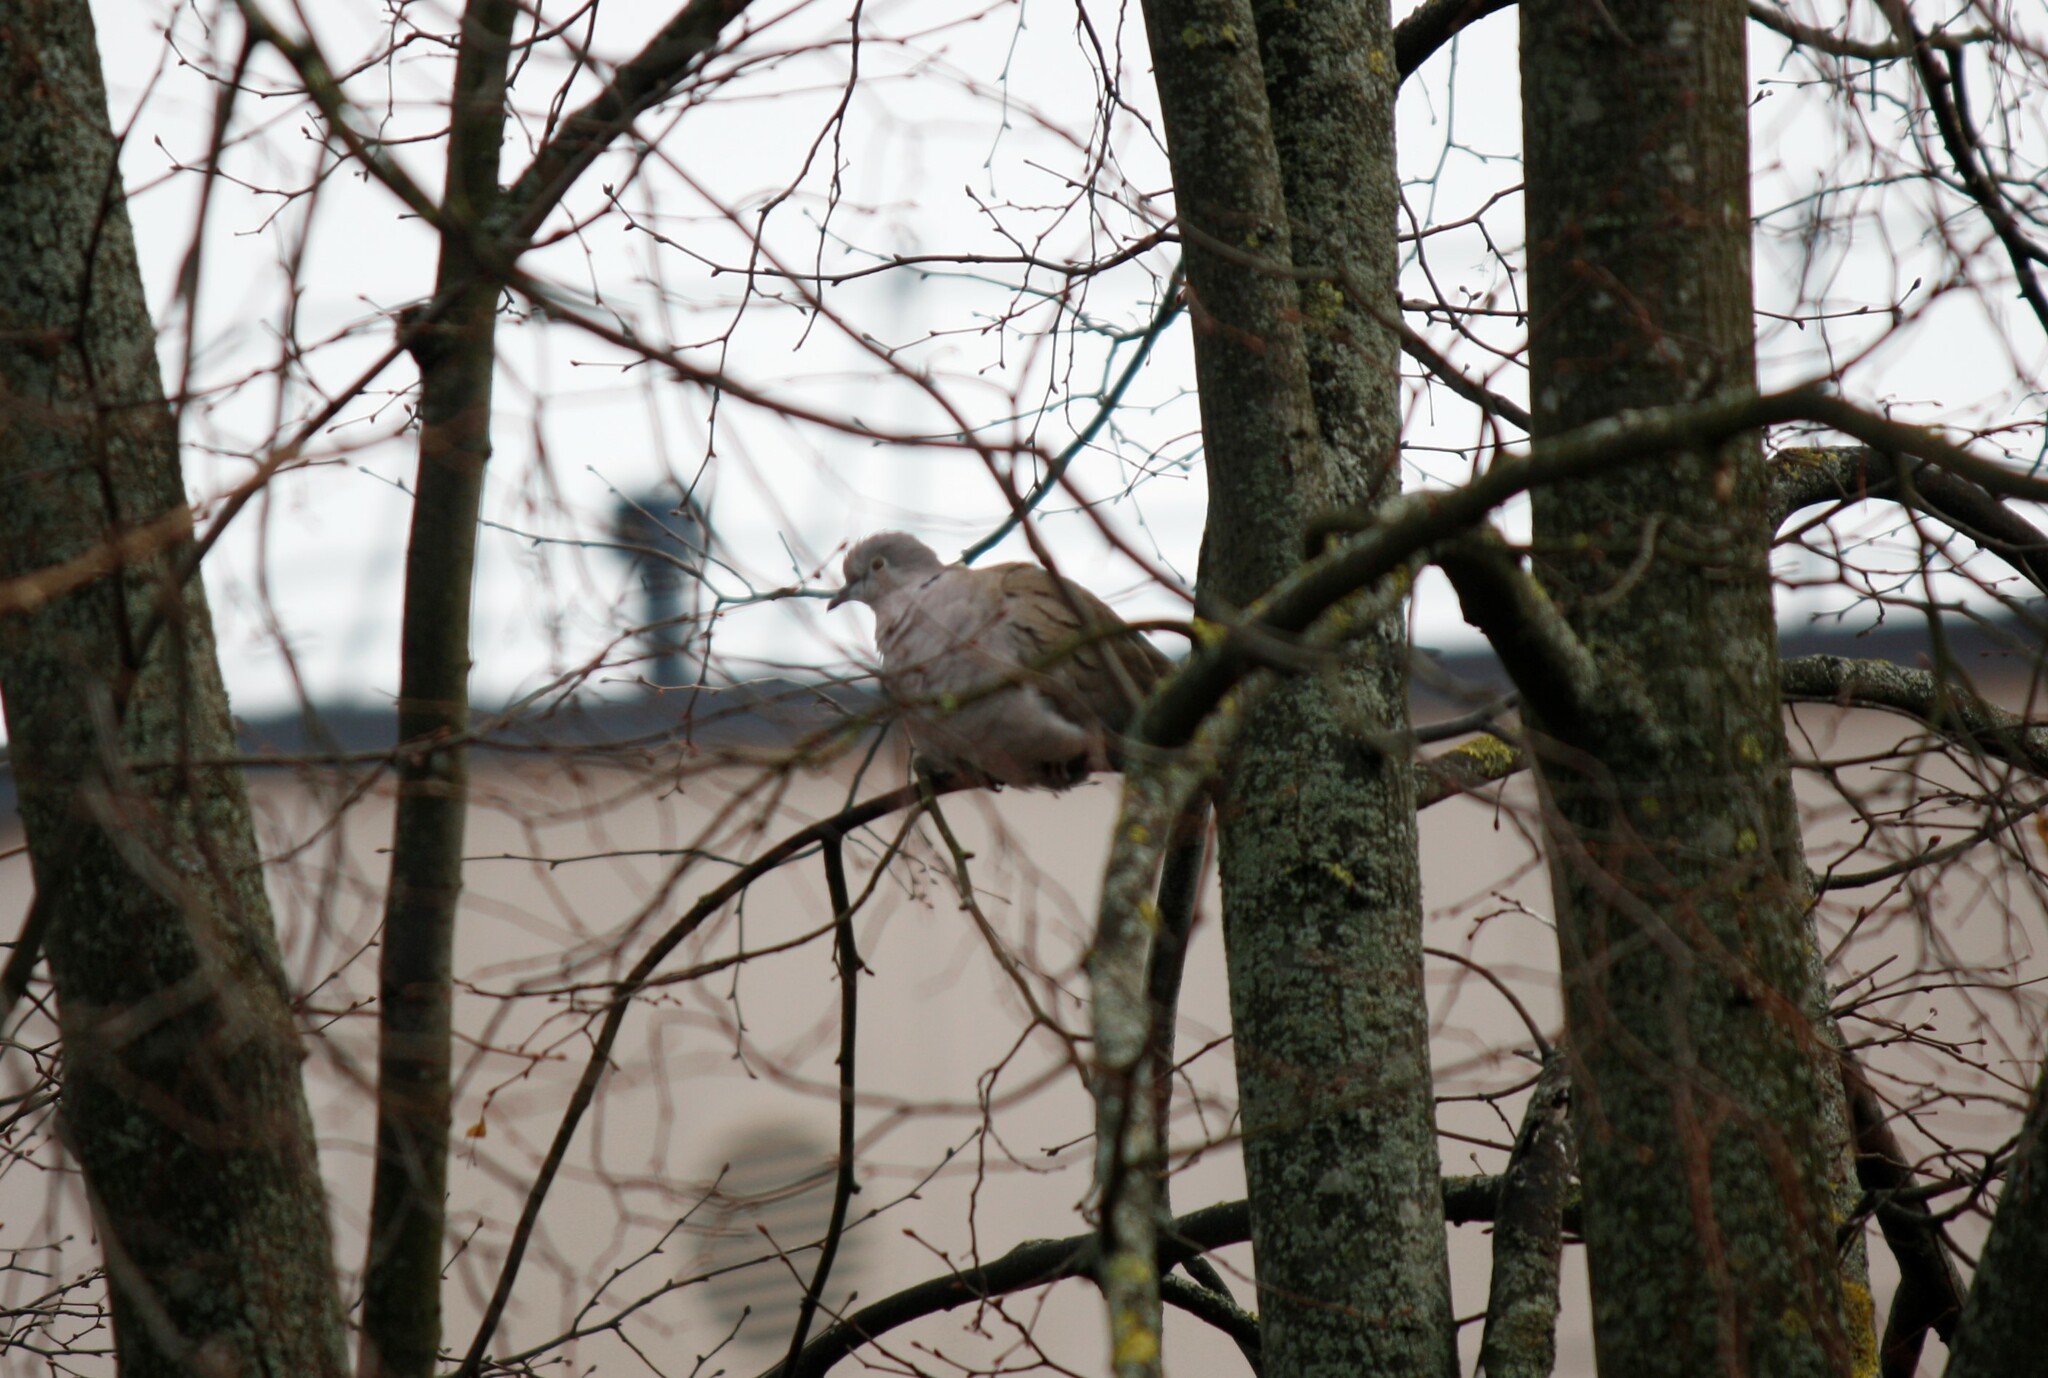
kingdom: Animalia
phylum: Chordata
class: Aves
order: Columbiformes
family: Columbidae
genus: Streptopelia
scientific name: Streptopelia decaocto
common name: Eurasian collared dove
